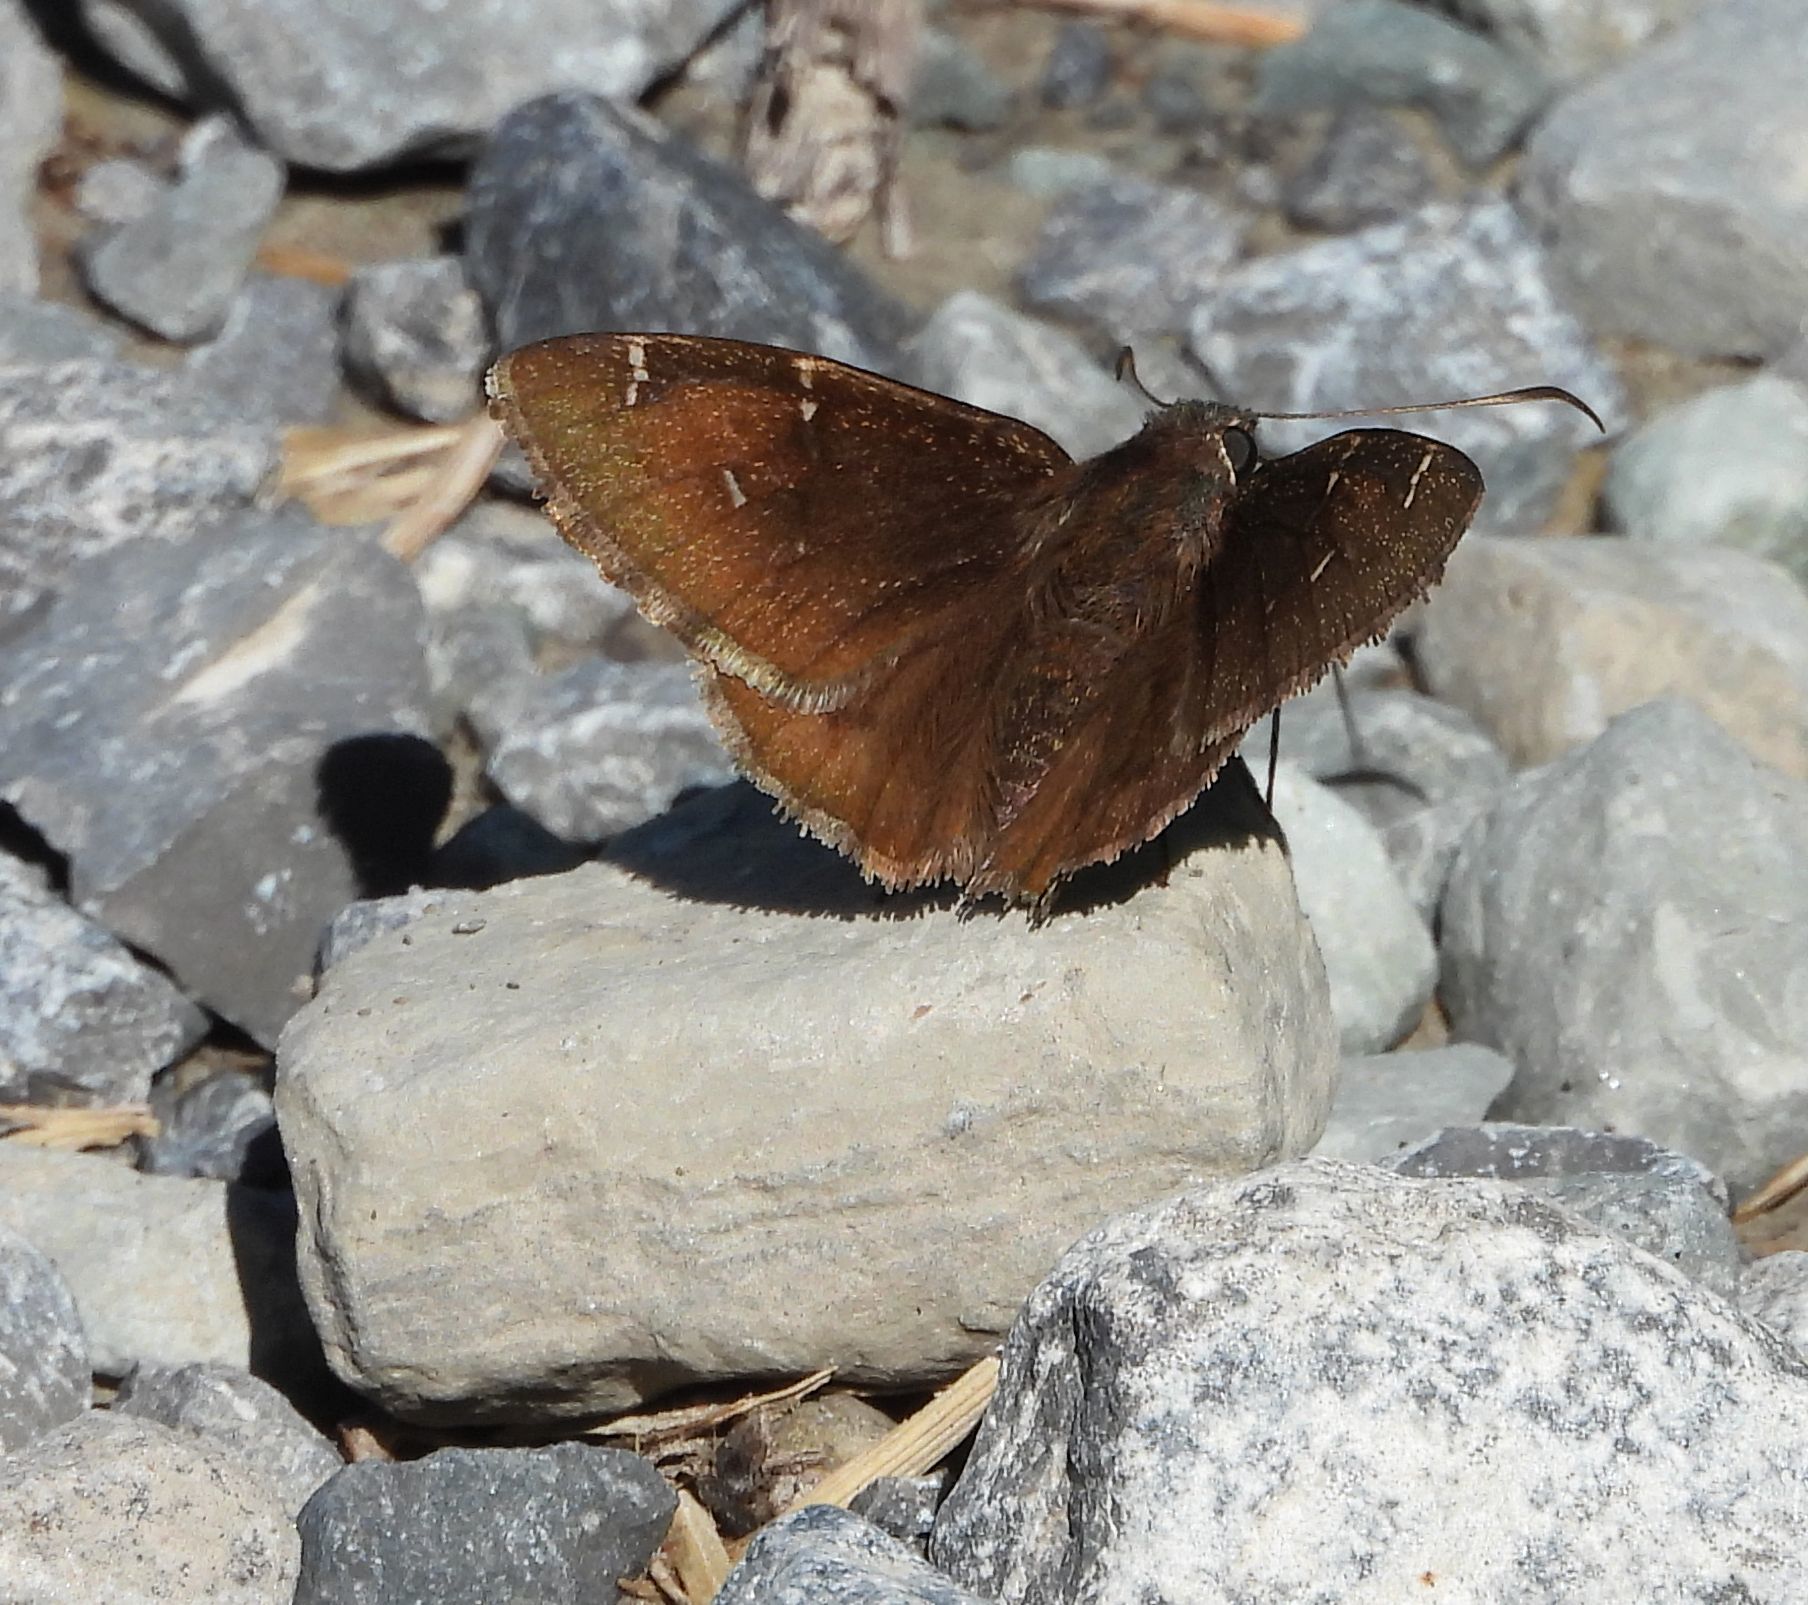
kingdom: Animalia
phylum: Arthropoda
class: Insecta
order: Lepidoptera
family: Hesperiidae
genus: Thorybes
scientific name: Thorybes pylades
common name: Northern cloudywing
